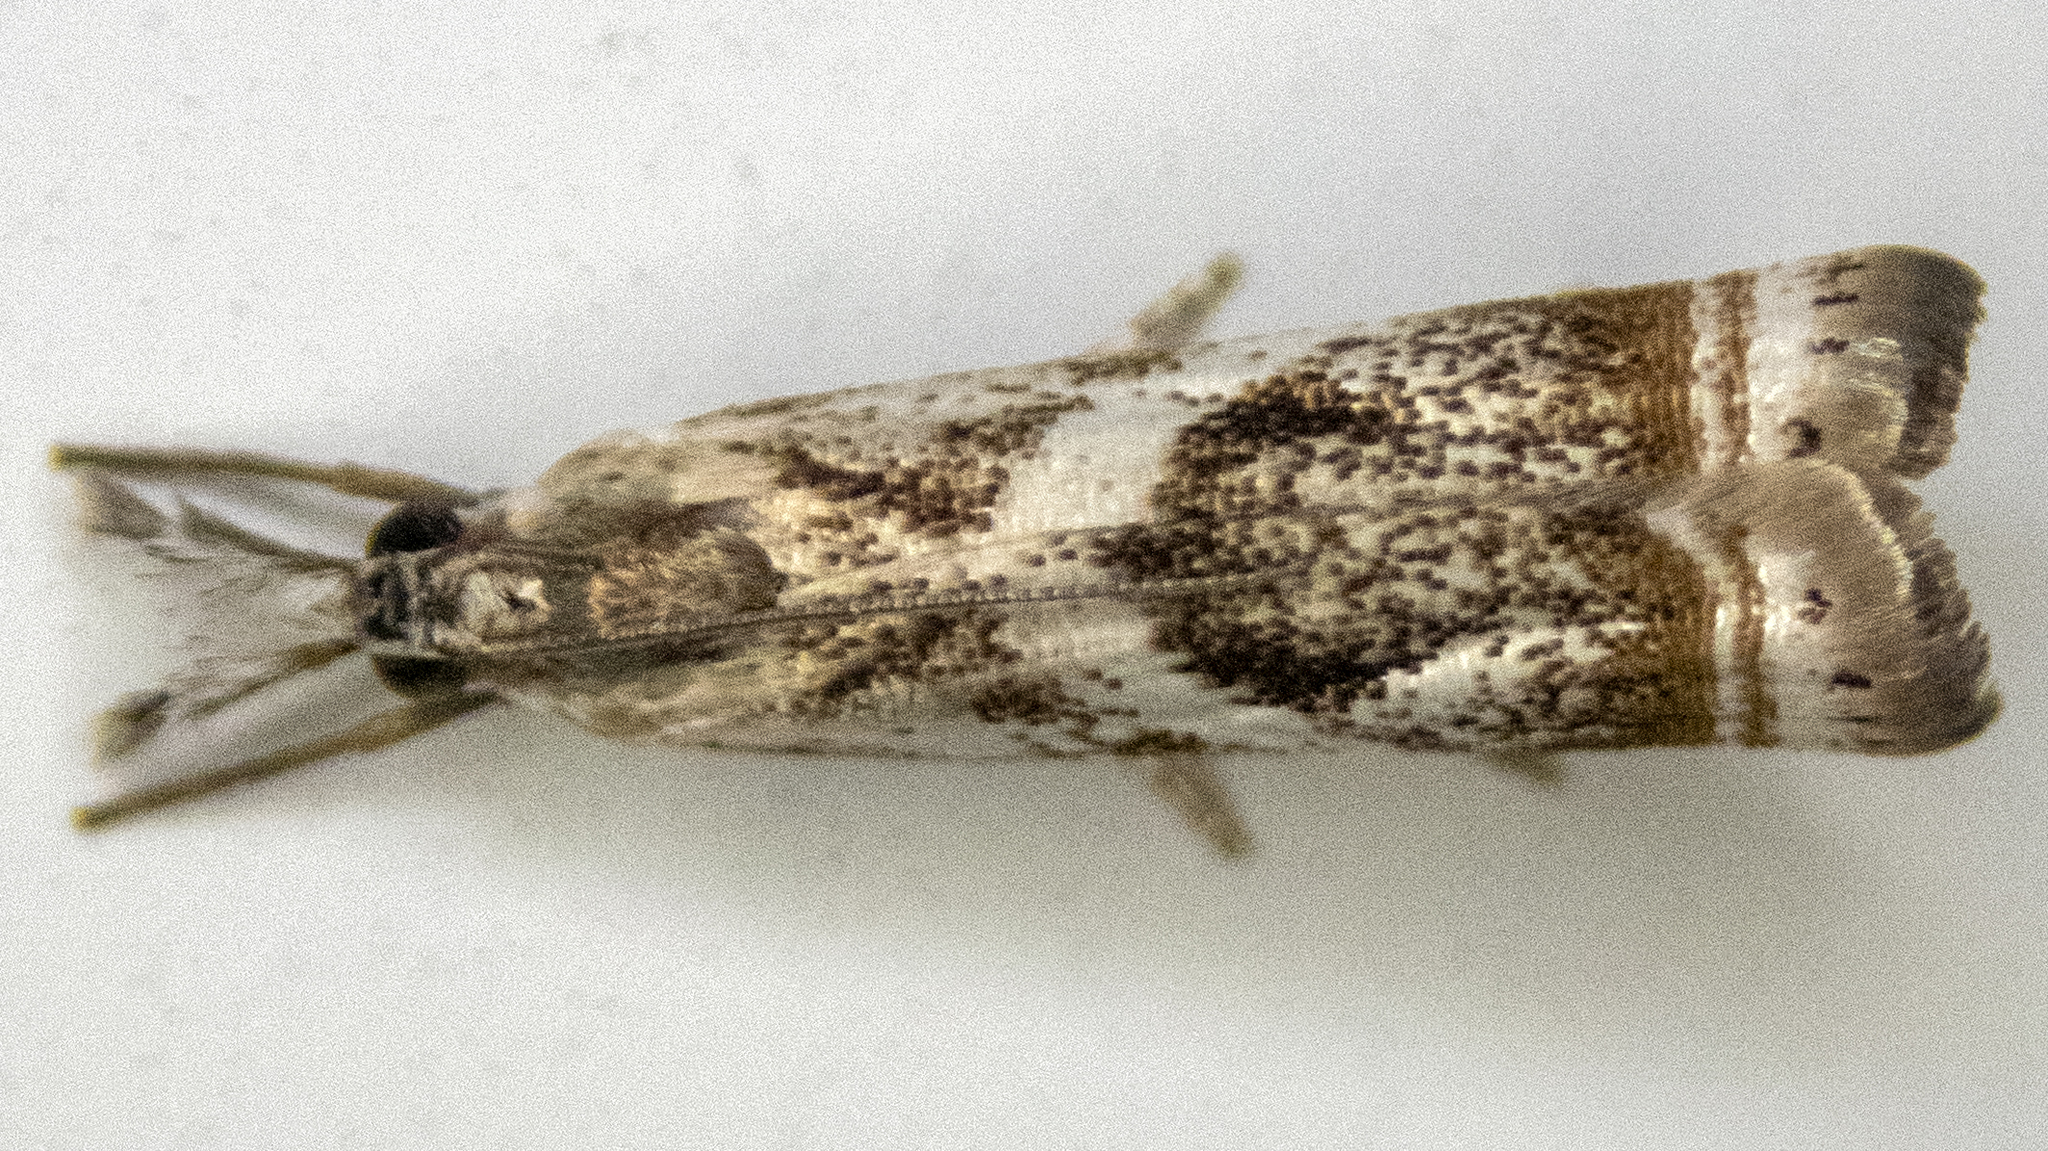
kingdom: Animalia
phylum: Arthropoda
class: Insecta
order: Lepidoptera
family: Crambidae
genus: Microcrambus
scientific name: Microcrambus elegans
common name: Elegant grass-veneer
